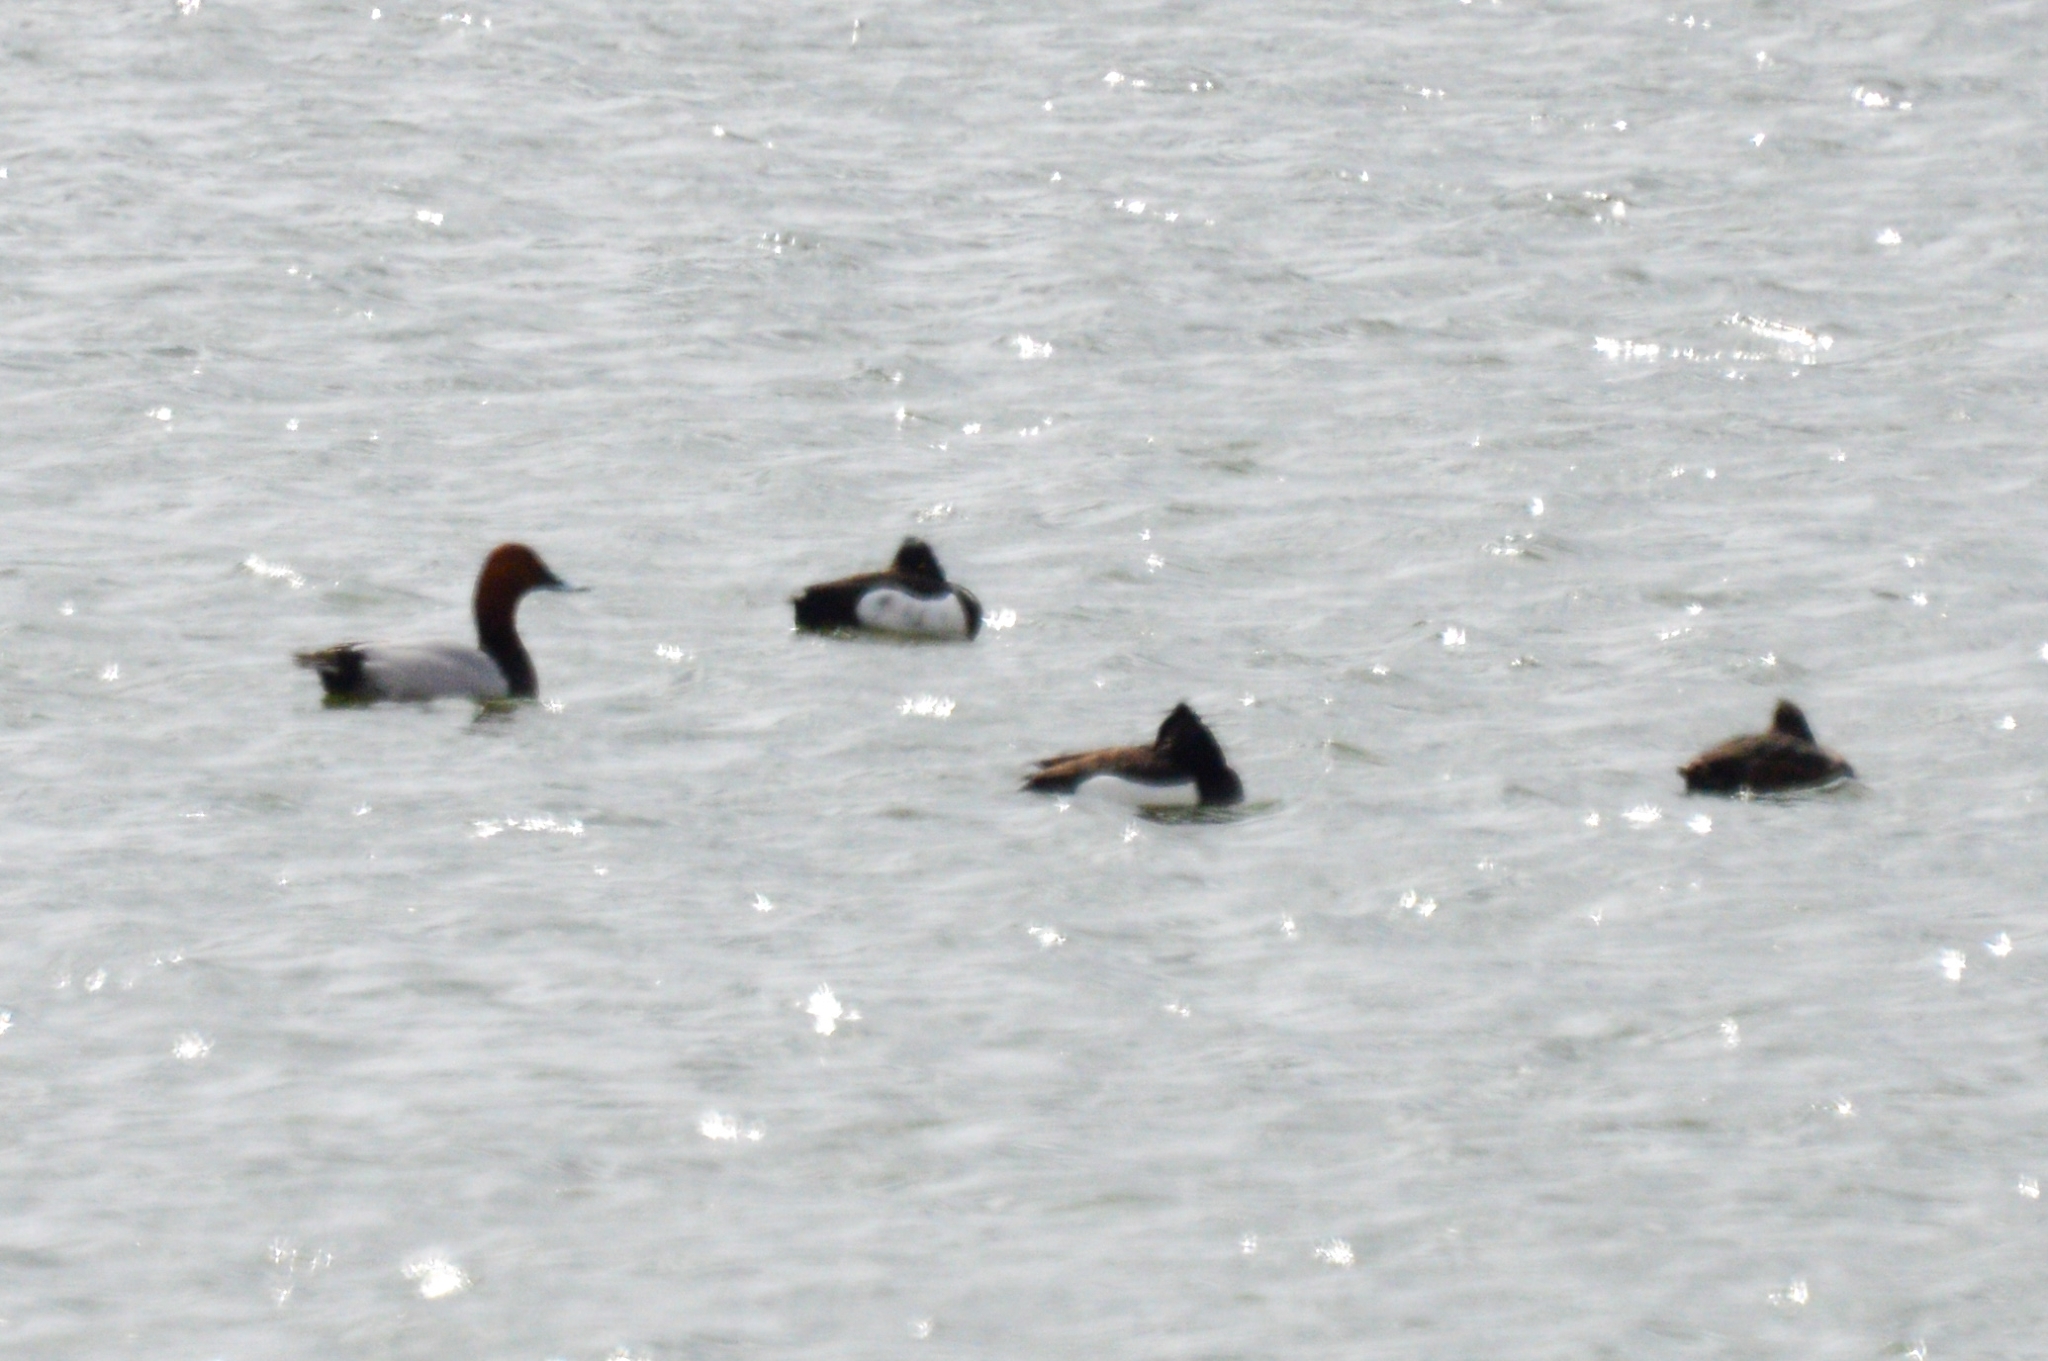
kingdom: Animalia
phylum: Chordata
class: Aves
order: Anseriformes
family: Anatidae
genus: Aythya
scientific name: Aythya ferina
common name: Common pochard
